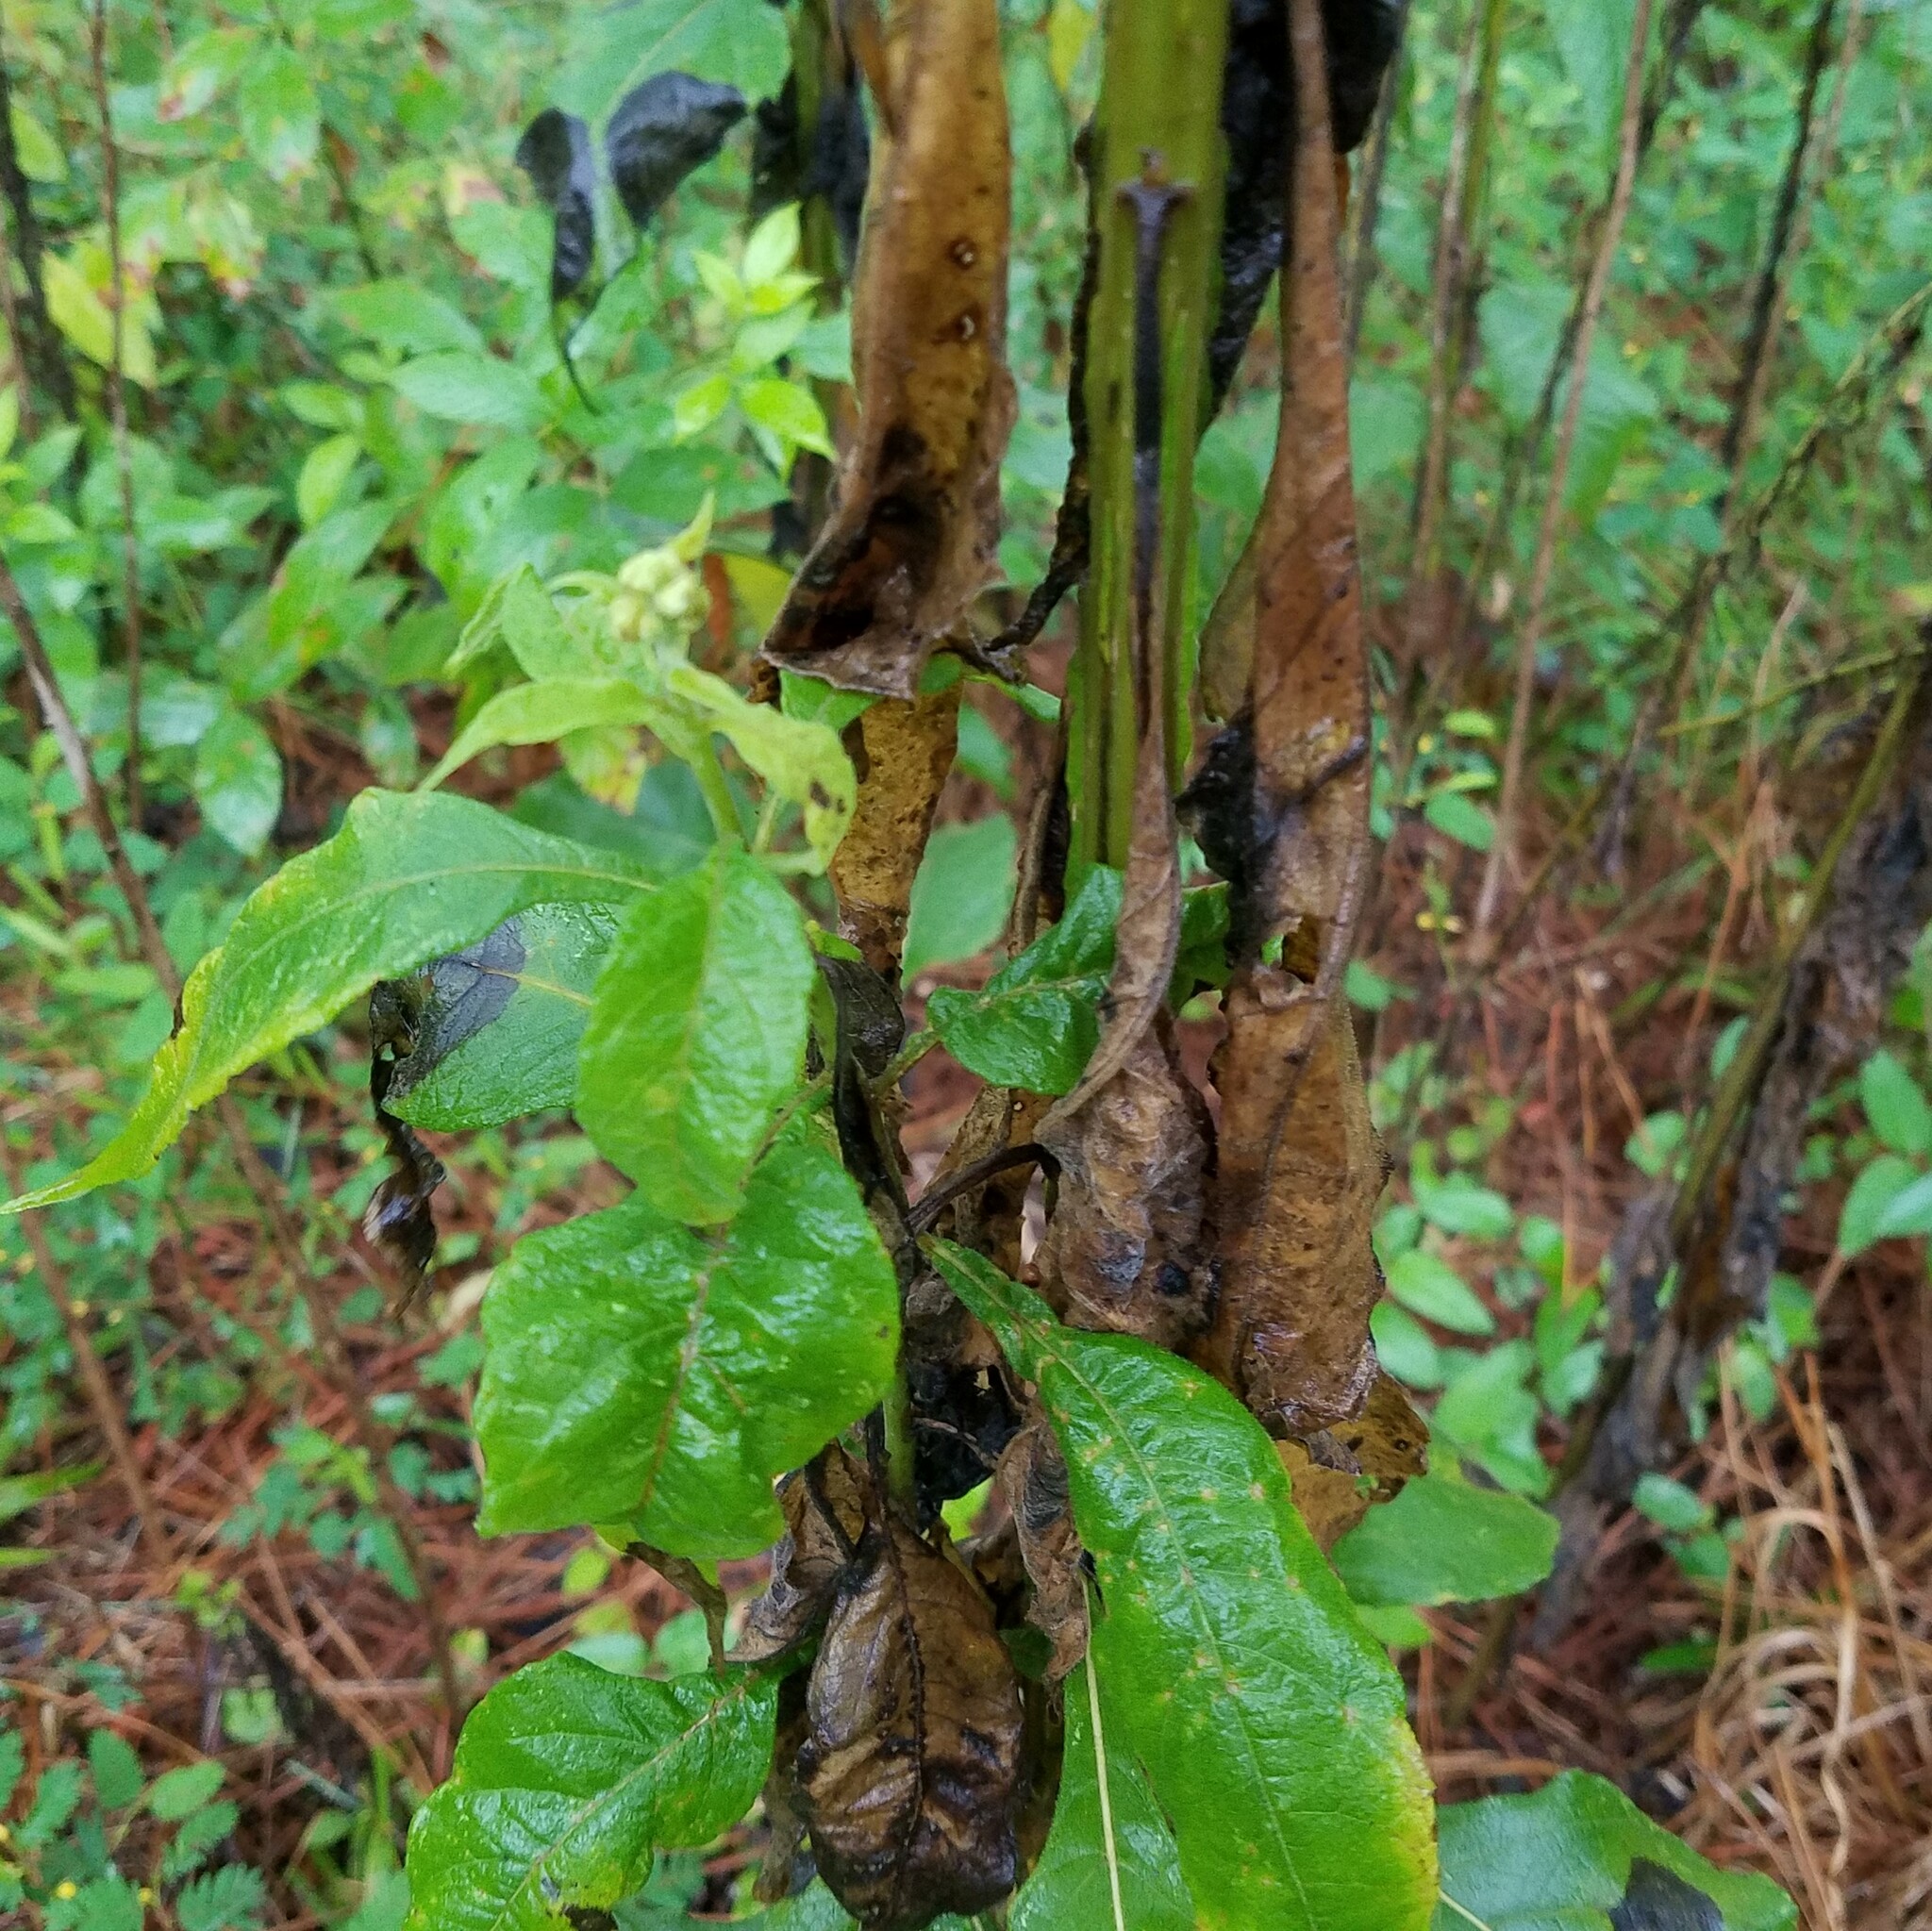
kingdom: Plantae
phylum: Tracheophyta
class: Magnoliopsida
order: Asterales
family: Asteraceae
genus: Verbesina
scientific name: Verbesina virginica
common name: Frostweed
